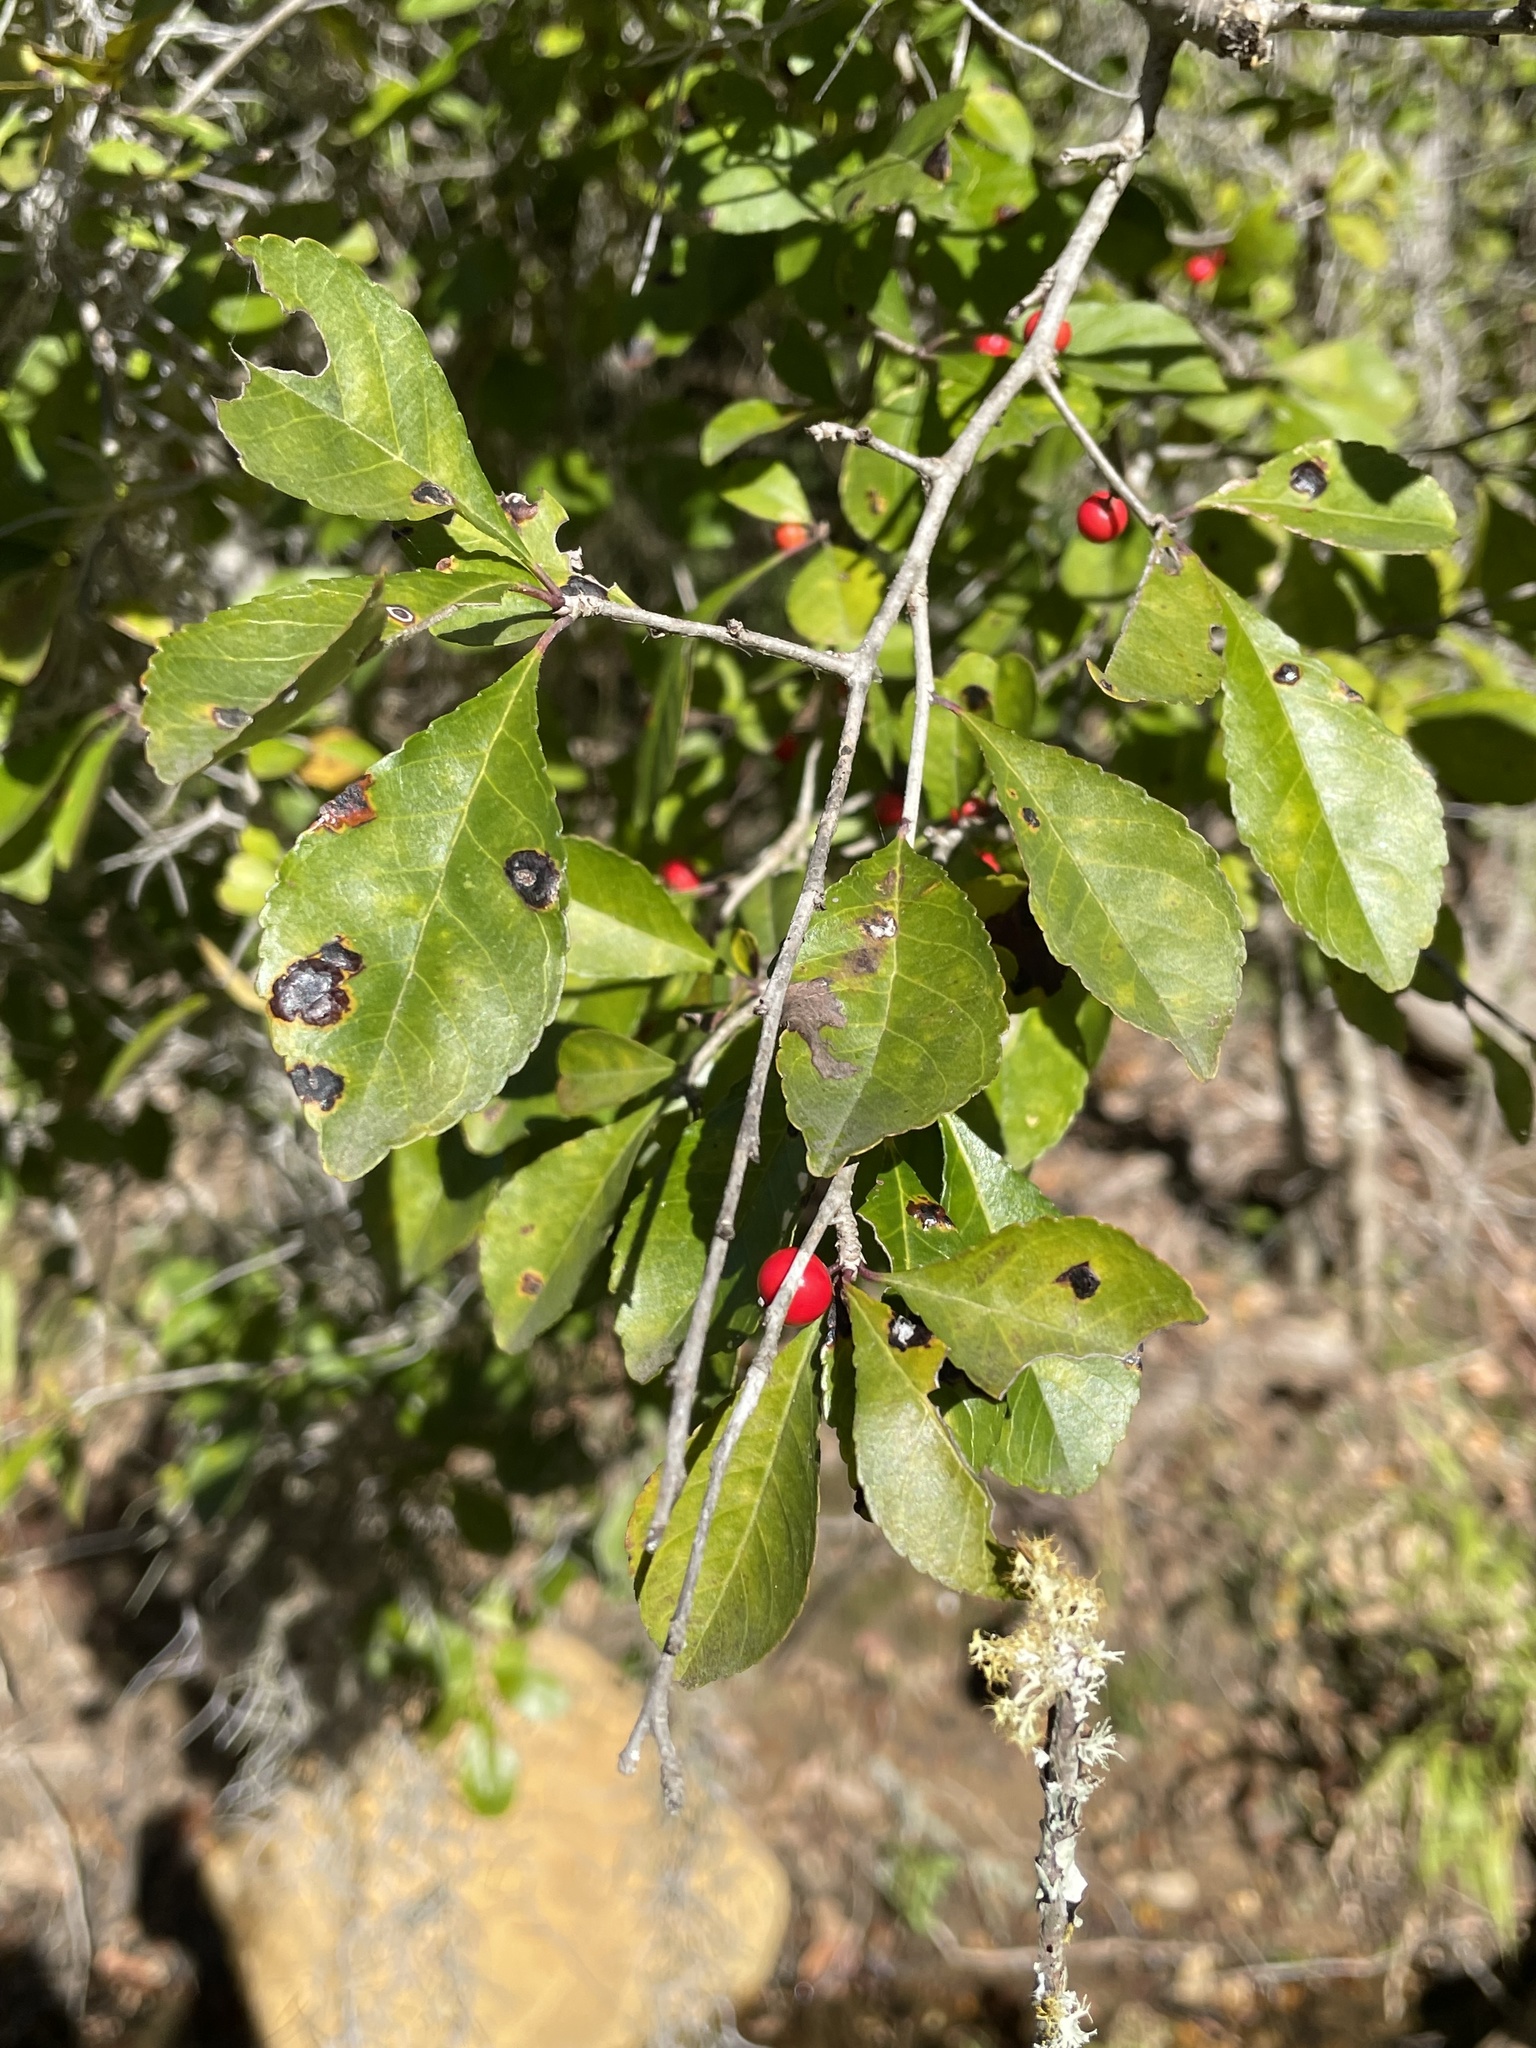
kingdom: Plantae
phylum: Tracheophyta
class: Magnoliopsida
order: Aquifoliales
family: Aquifoliaceae
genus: Ilex
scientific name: Ilex decidua
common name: Possum-haw
